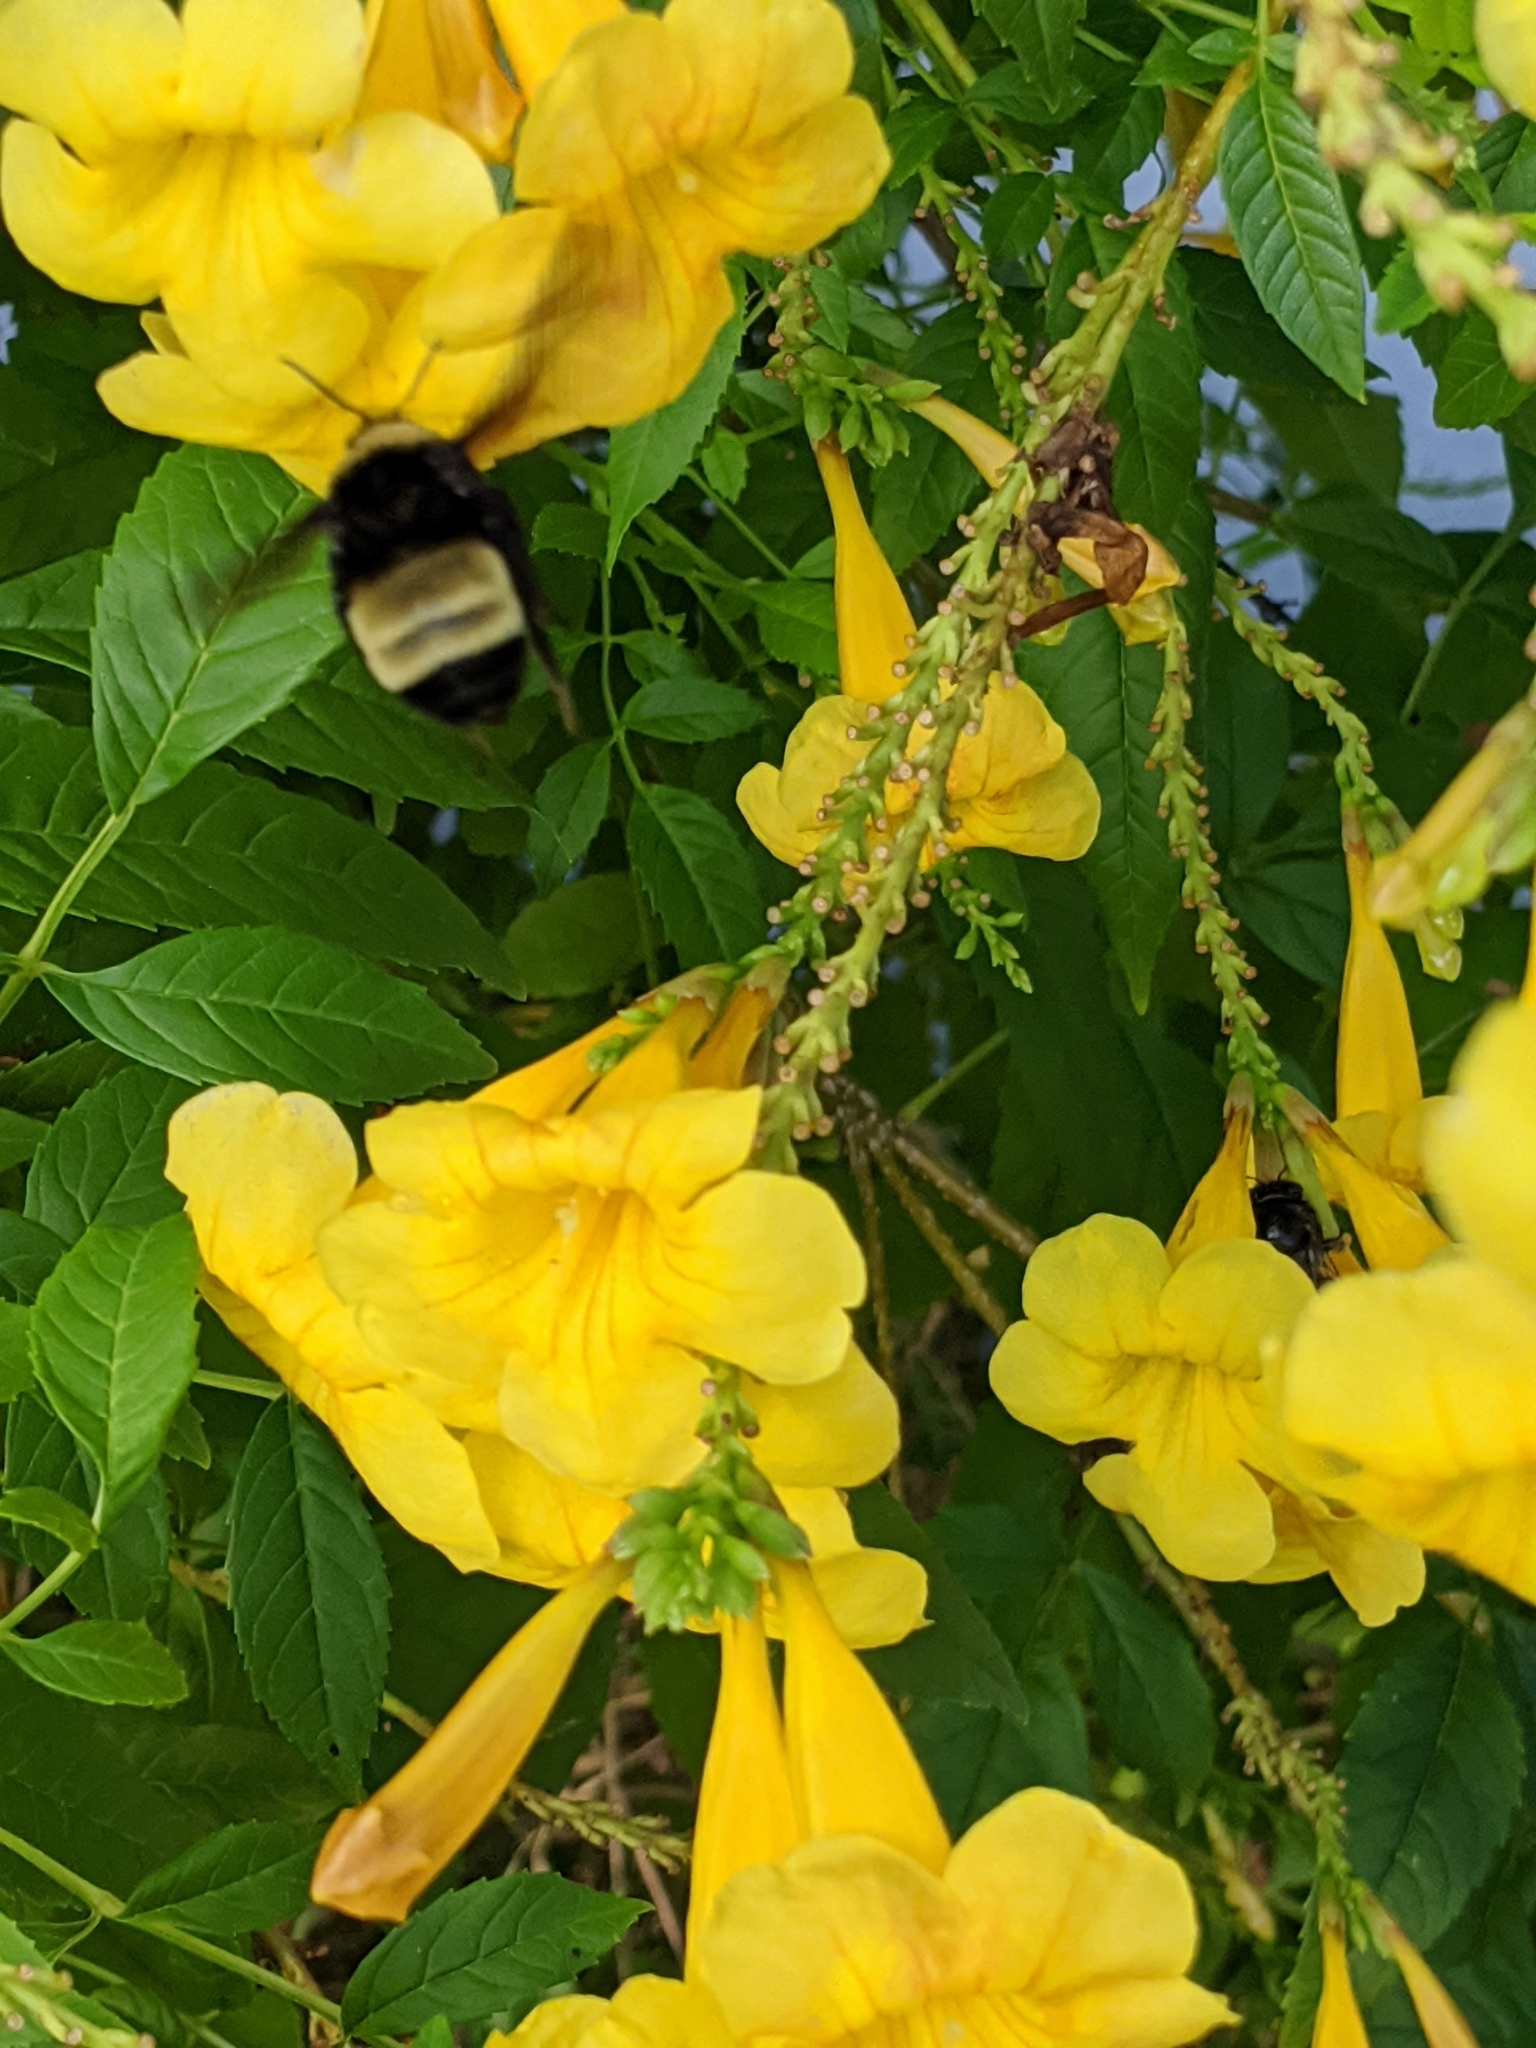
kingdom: Animalia
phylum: Arthropoda
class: Insecta
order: Hymenoptera
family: Apidae
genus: Bombus
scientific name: Bombus pensylvanicus
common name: Bumble bee
